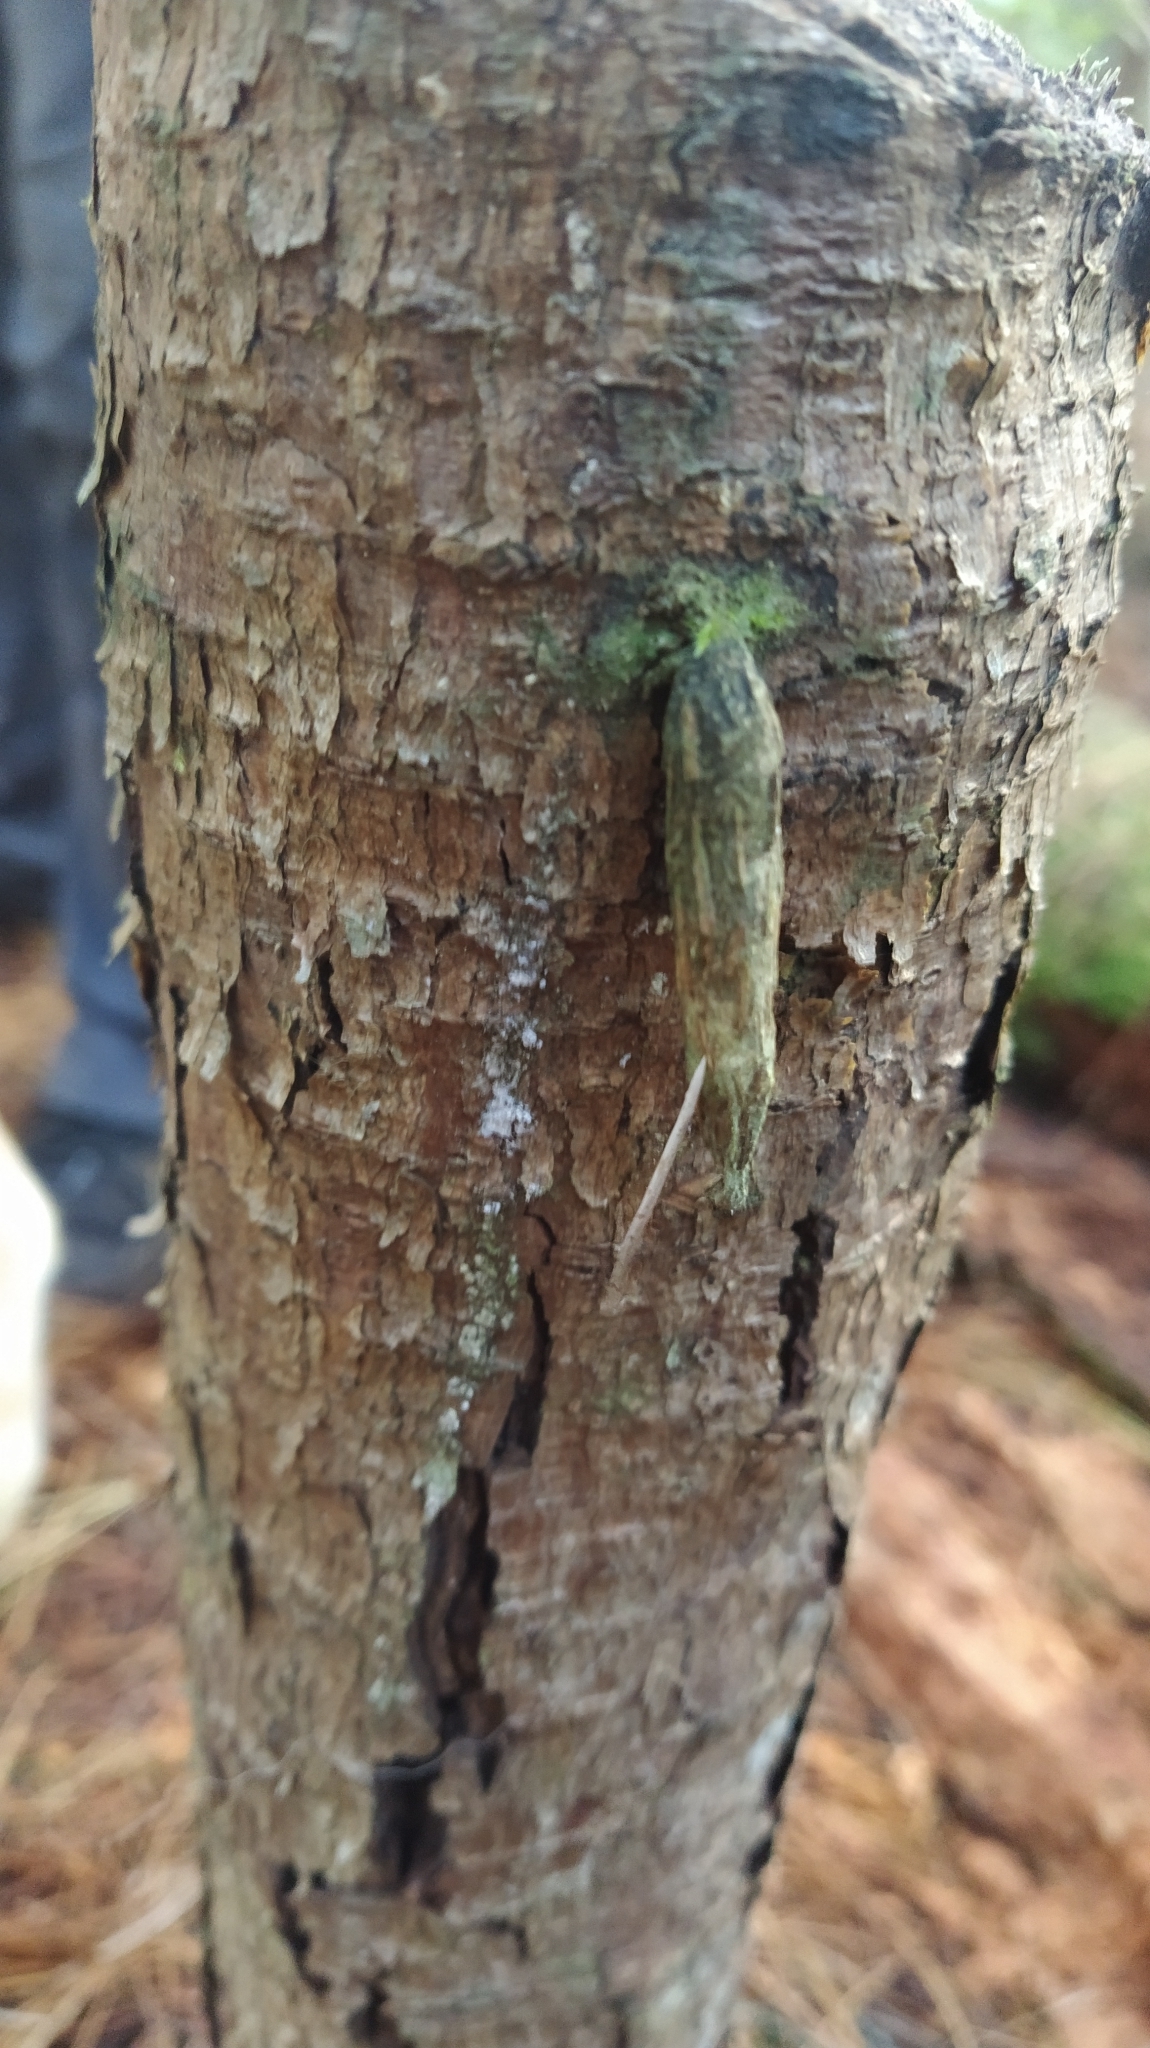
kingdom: Animalia
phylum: Arthropoda
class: Insecta
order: Lepidoptera
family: Psychidae
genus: Liothula
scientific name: Liothula omnivora
